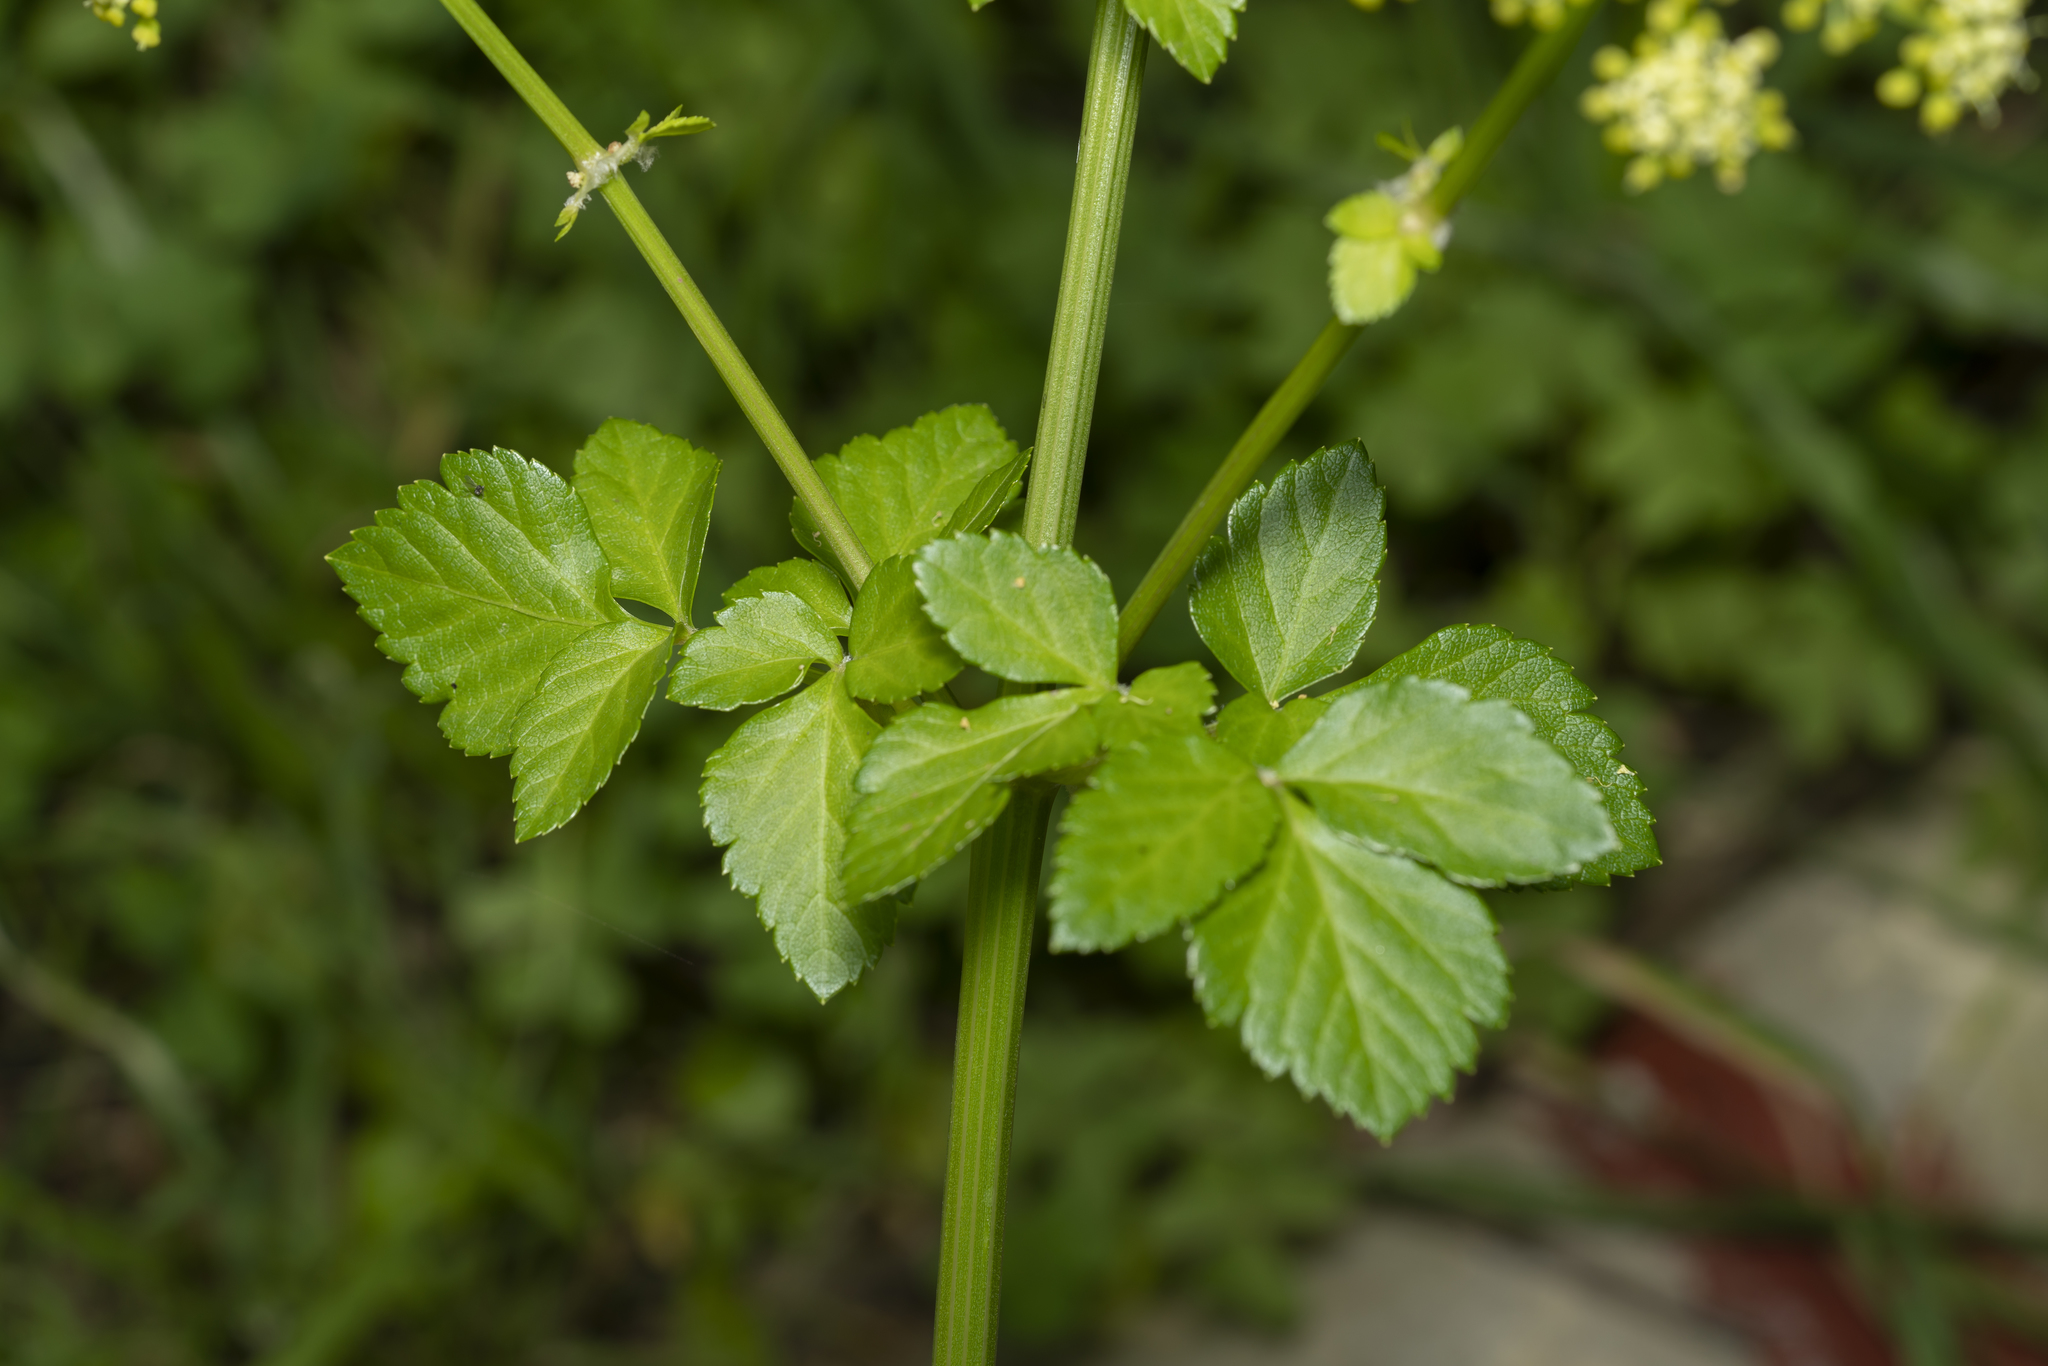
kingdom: Plantae
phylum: Tracheophyta
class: Magnoliopsida
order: Apiales
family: Apiaceae
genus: Smyrnium
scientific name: Smyrnium olusatrum
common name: Alexanders
